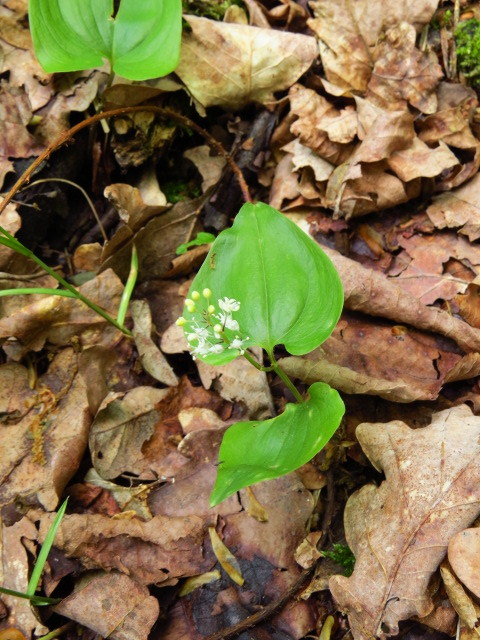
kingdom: Plantae
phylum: Tracheophyta
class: Liliopsida
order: Asparagales
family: Asparagaceae
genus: Maianthemum
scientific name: Maianthemum bifolium
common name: May lily
